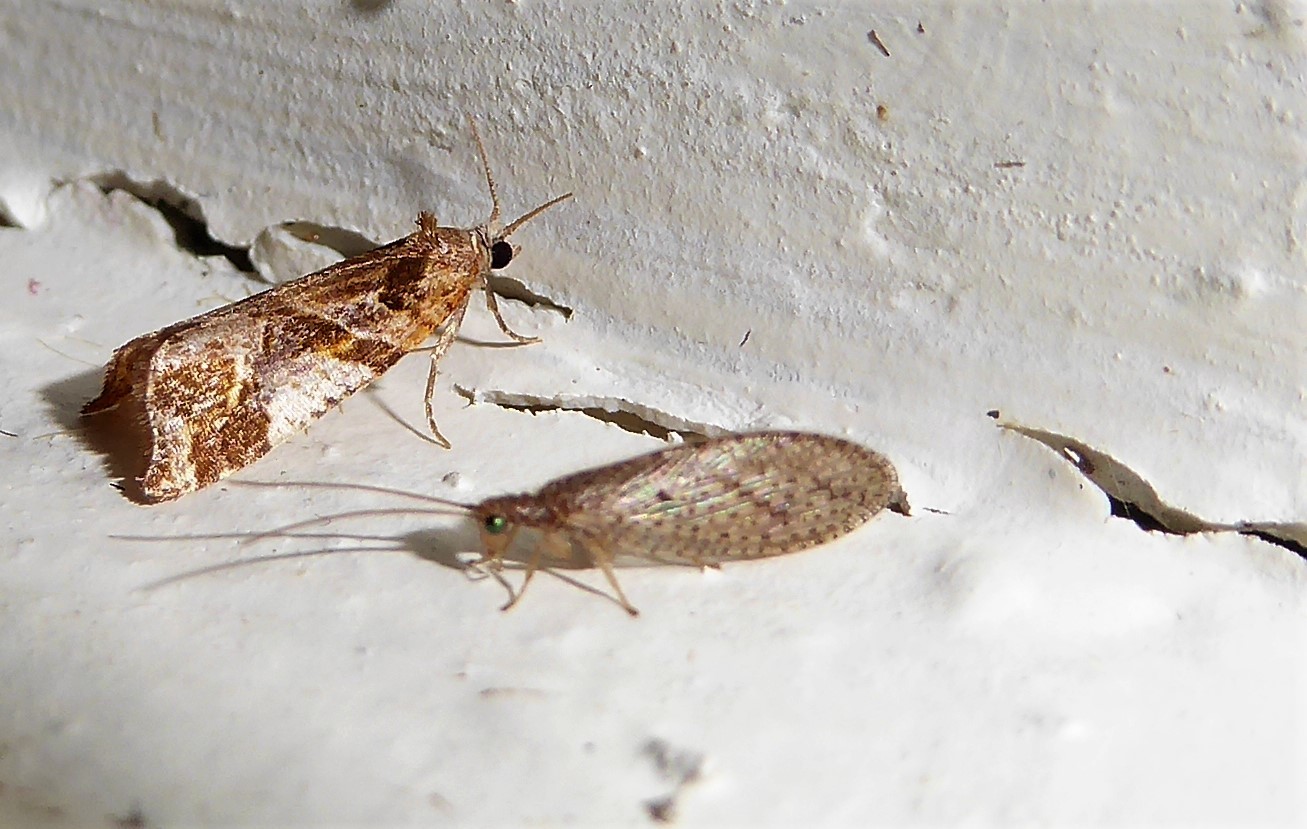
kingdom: Animalia
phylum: Arthropoda
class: Insecta
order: Neuroptera
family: Hemerobiidae
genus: Micromus
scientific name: Micromus tasmaniae
